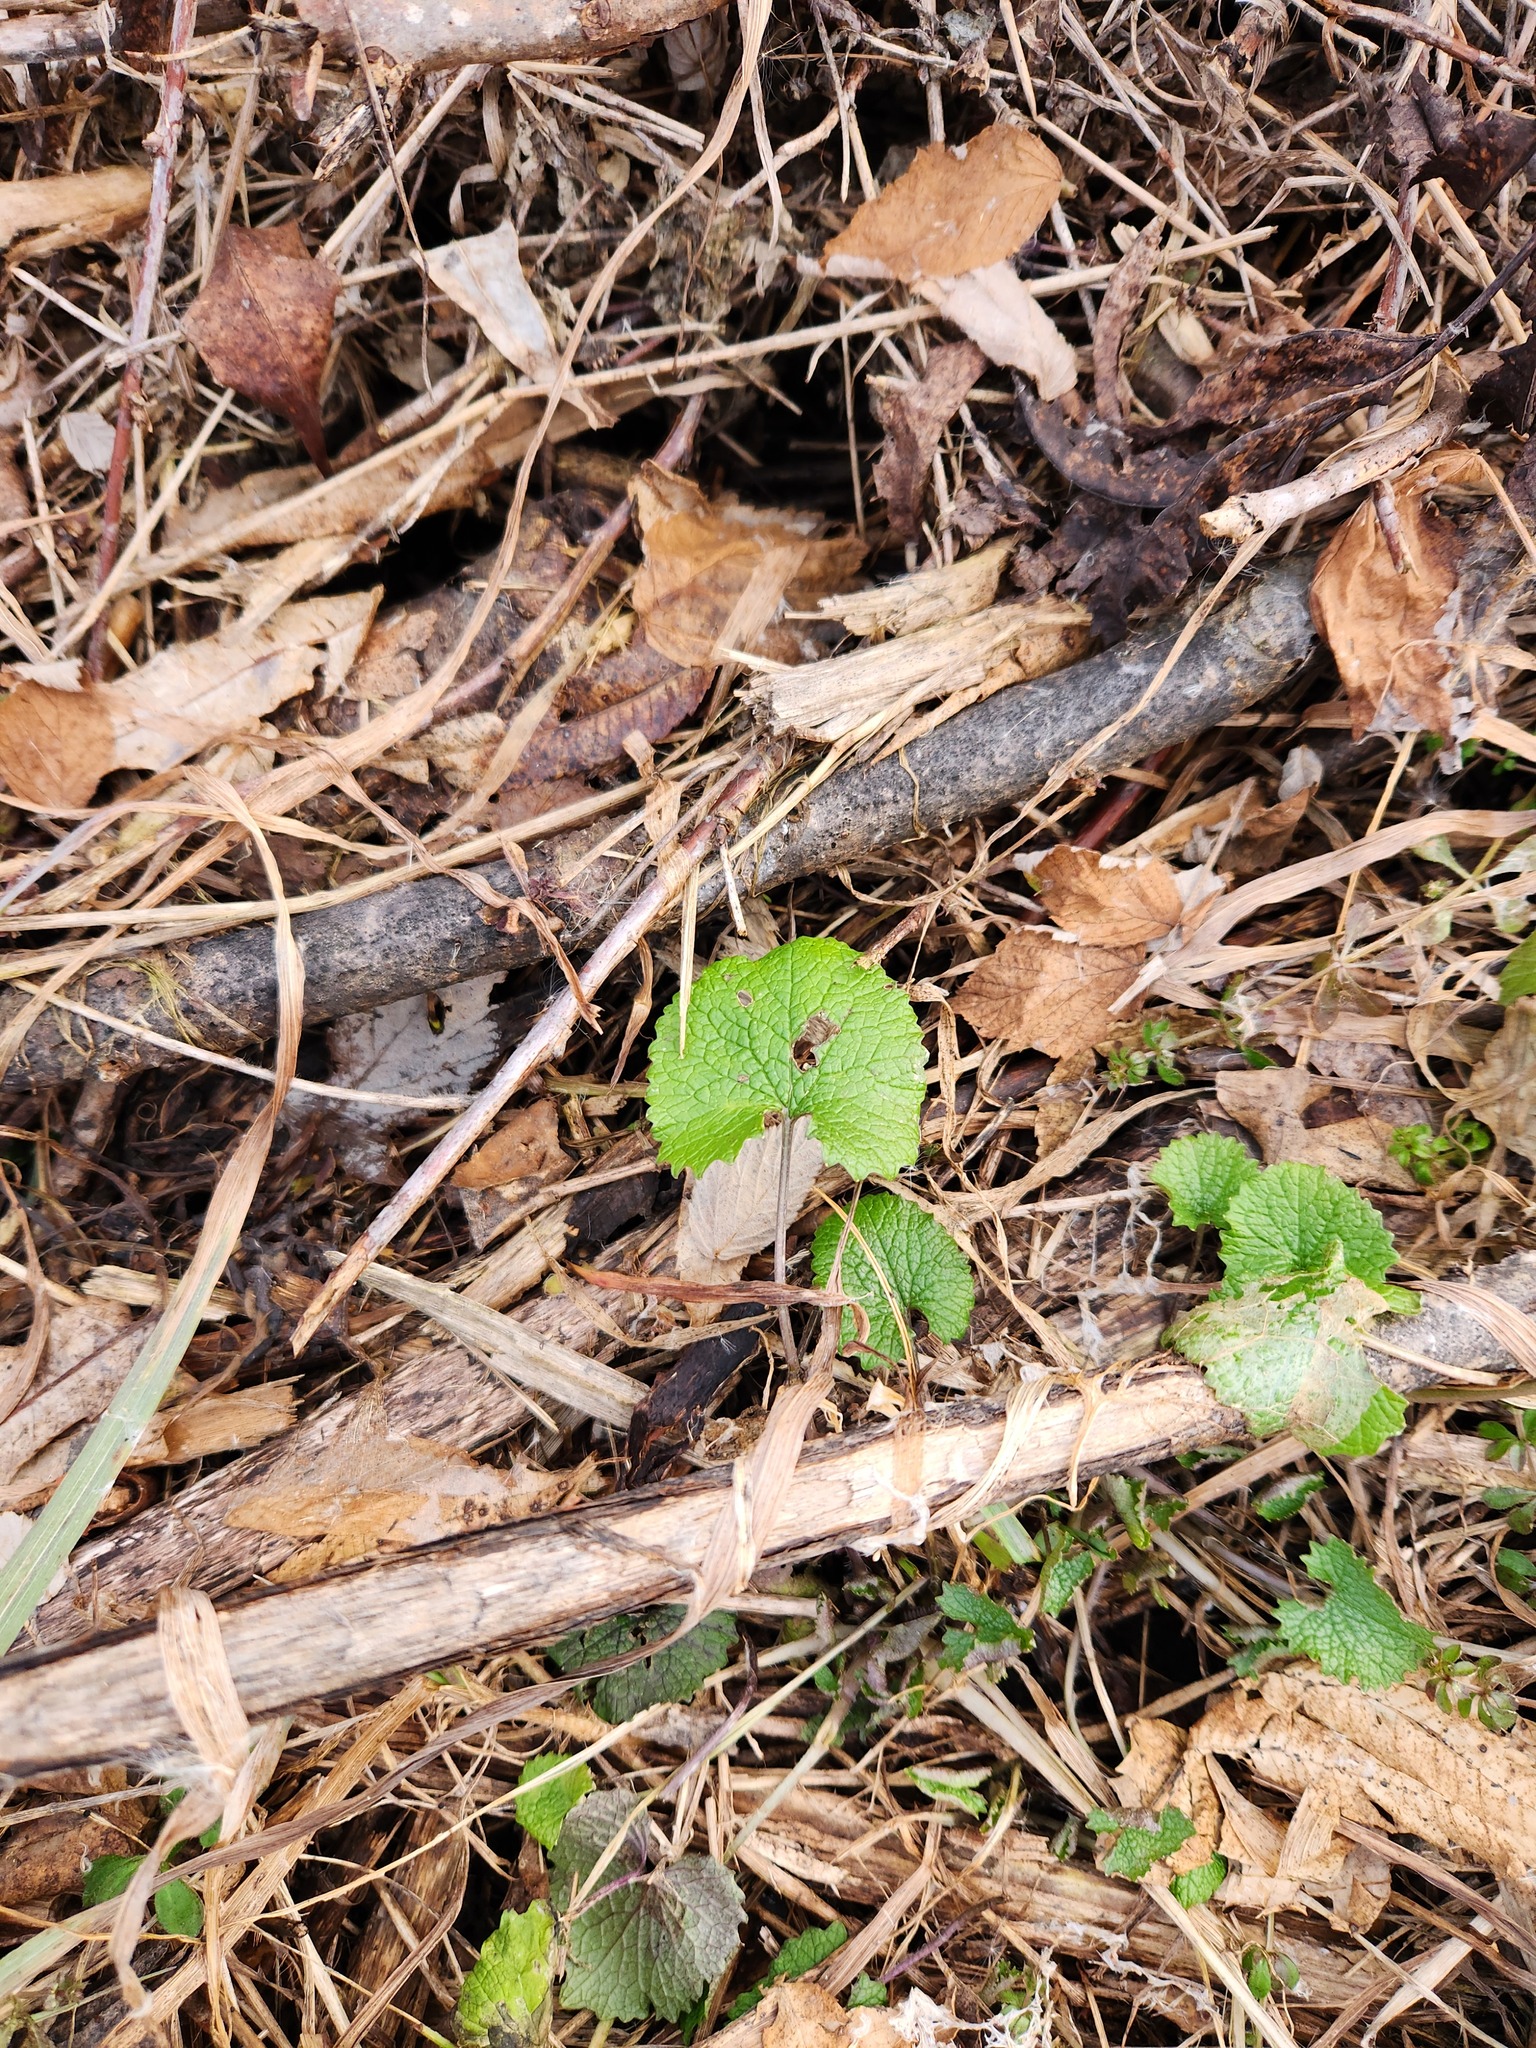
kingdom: Plantae
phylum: Tracheophyta
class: Magnoliopsida
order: Brassicales
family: Brassicaceae
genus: Alliaria
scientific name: Alliaria petiolata
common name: Garlic mustard
